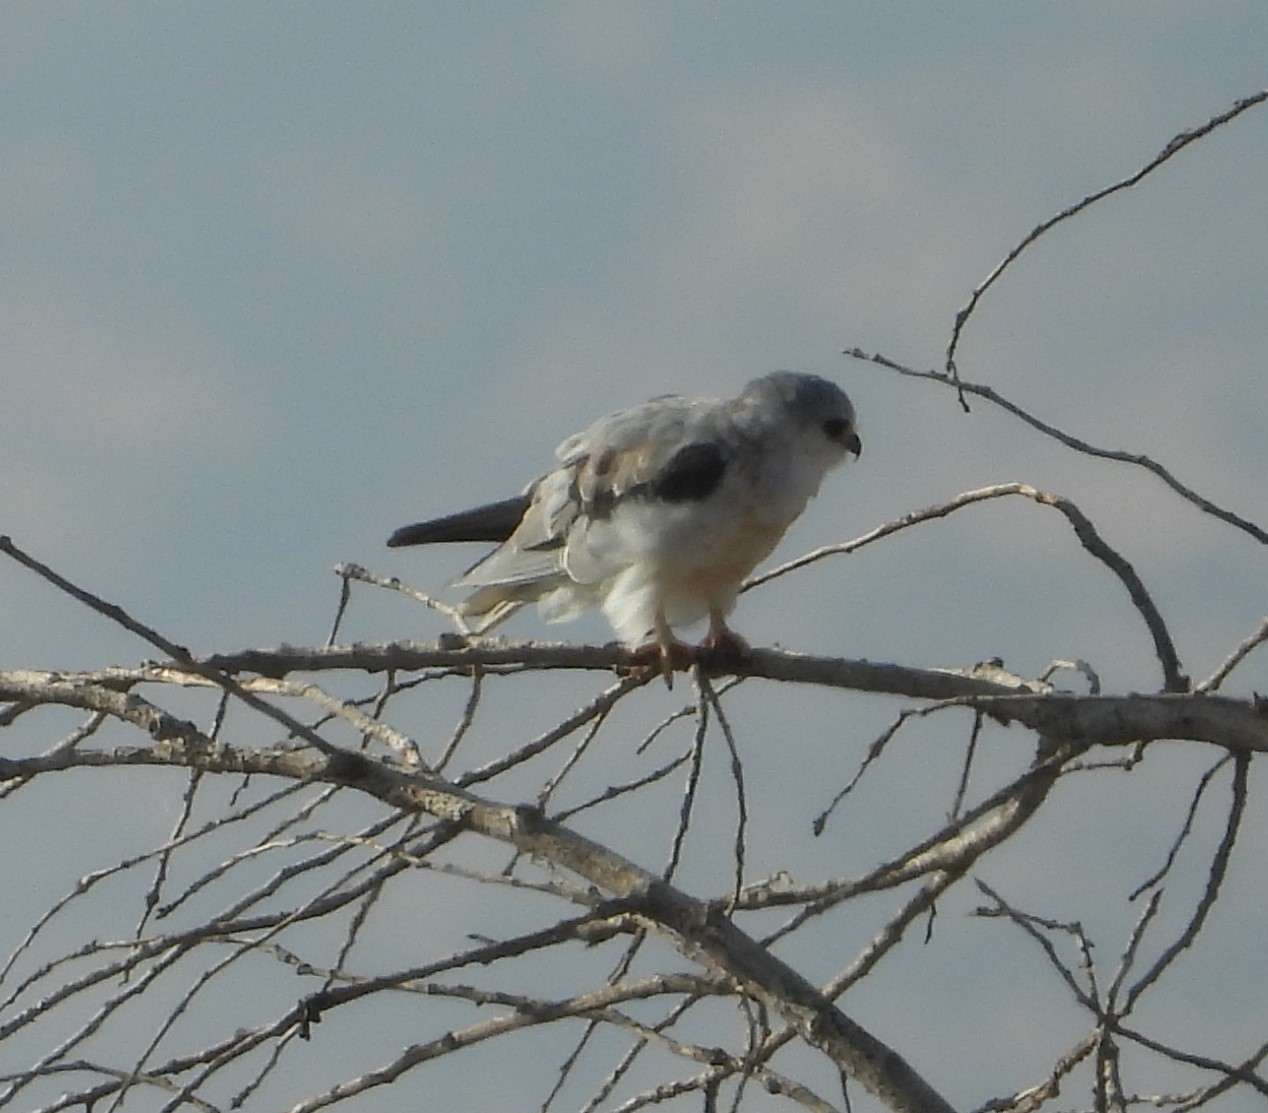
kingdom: Animalia
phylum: Chordata
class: Aves
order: Accipitriformes
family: Accipitridae
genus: Elanus
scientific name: Elanus leucurus
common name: White-tailed kite
